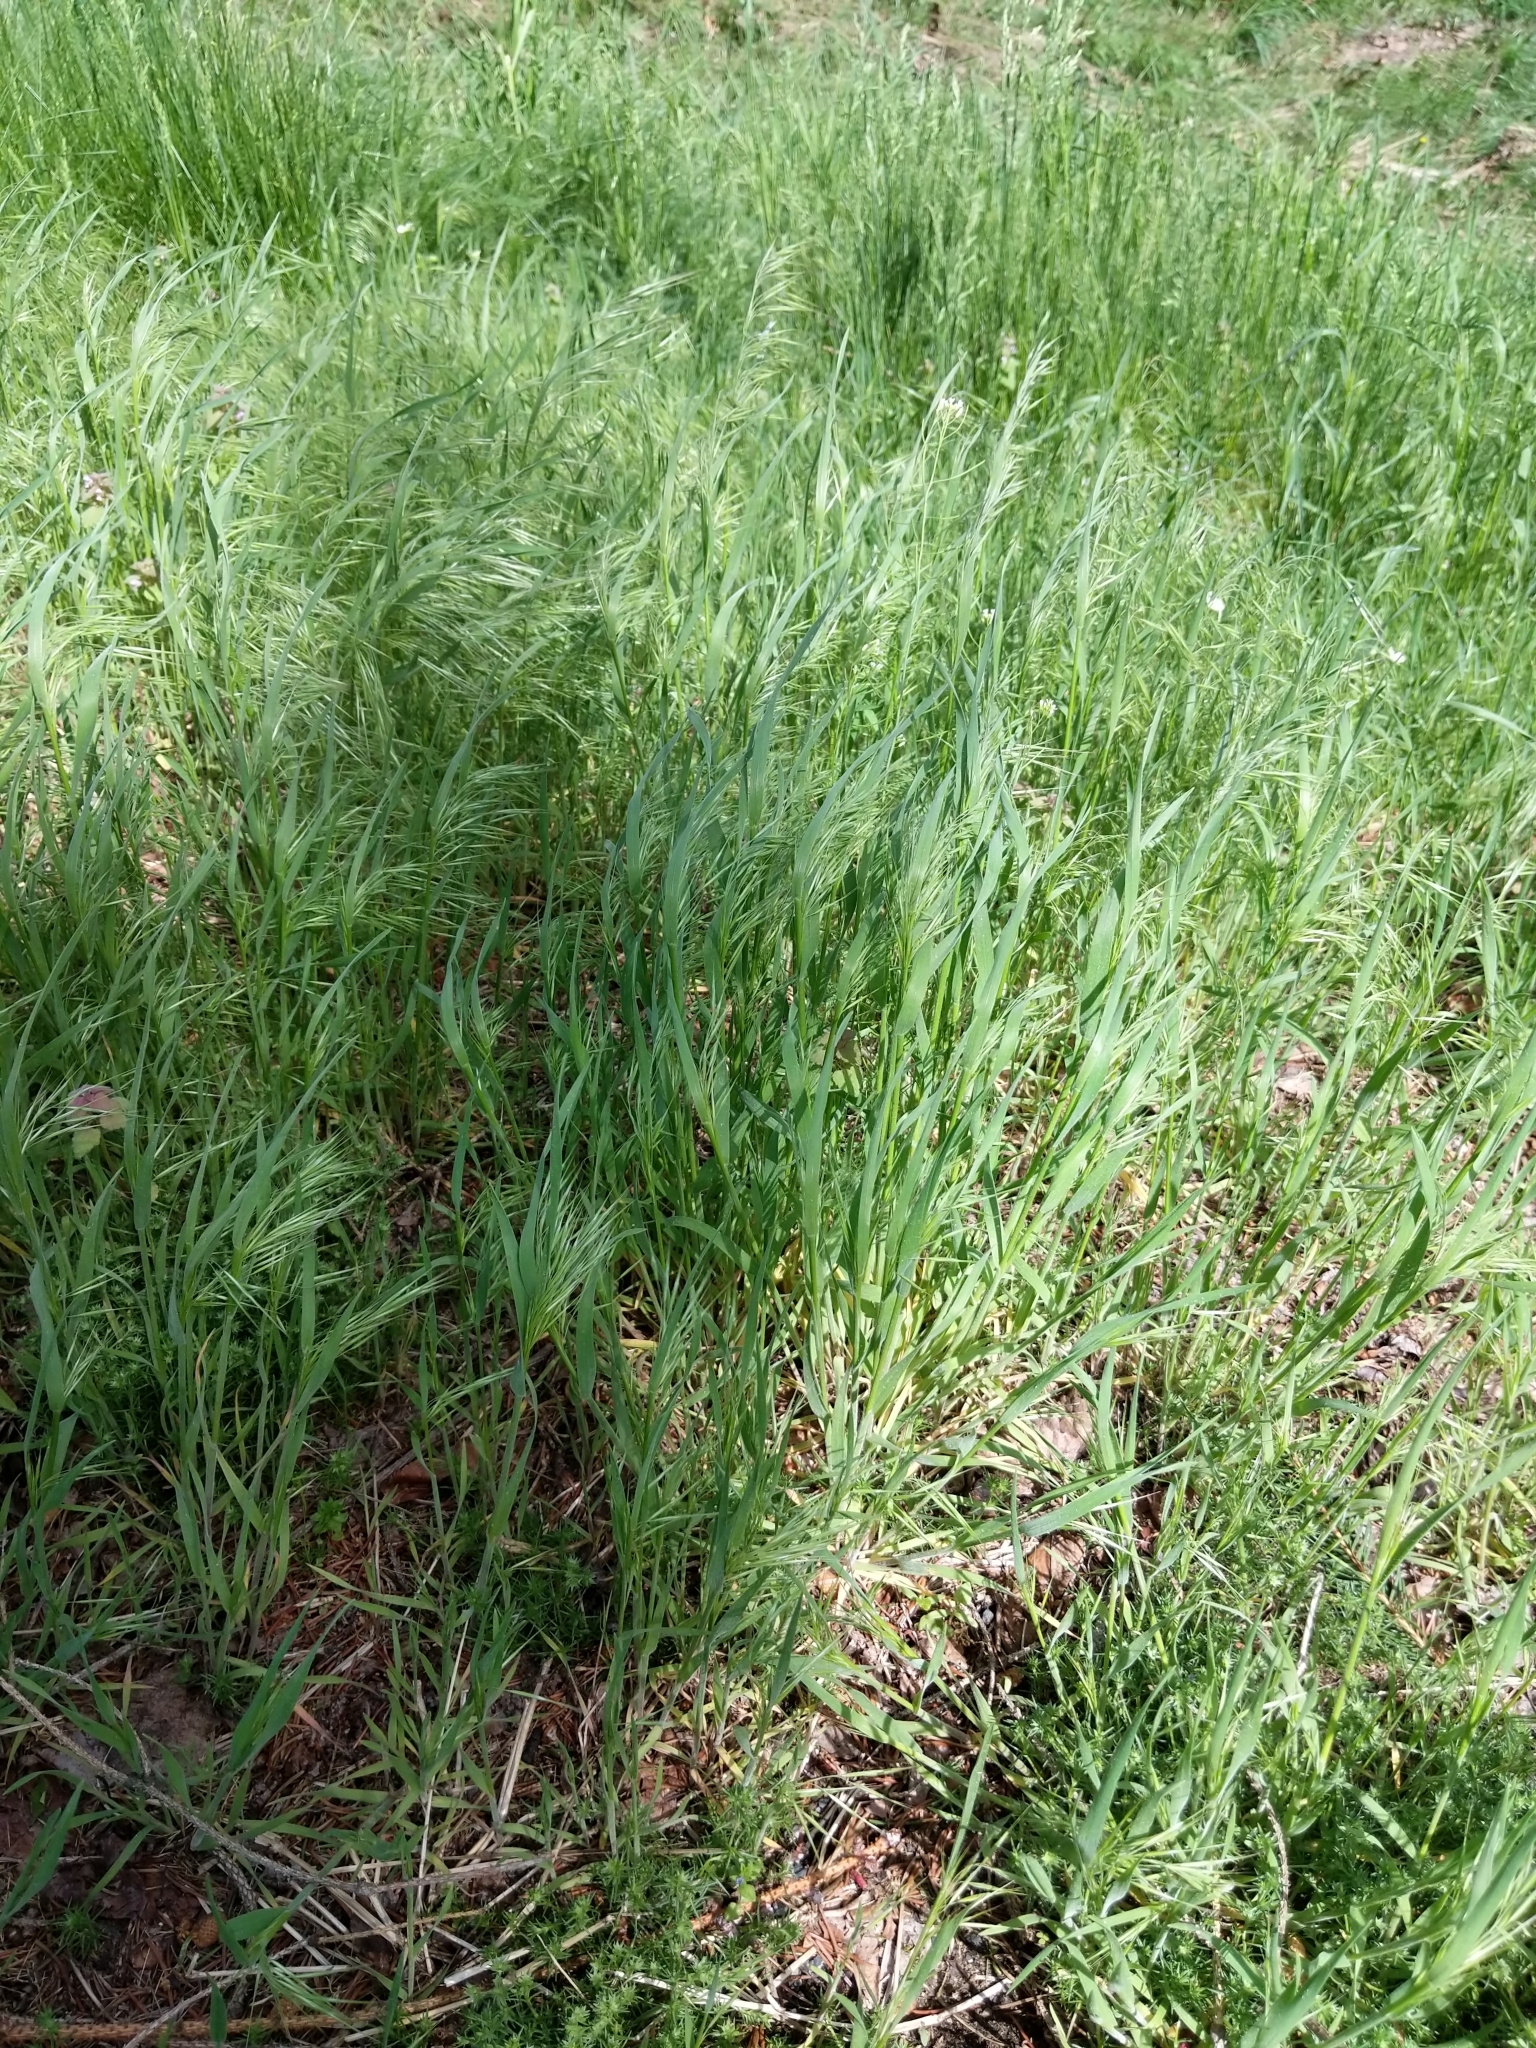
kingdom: Plantae
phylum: Tracheophyta
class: Liliopsida
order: Poales
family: Poaceae
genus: Bromus
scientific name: Bromus tectorum
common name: Cheatgrass
